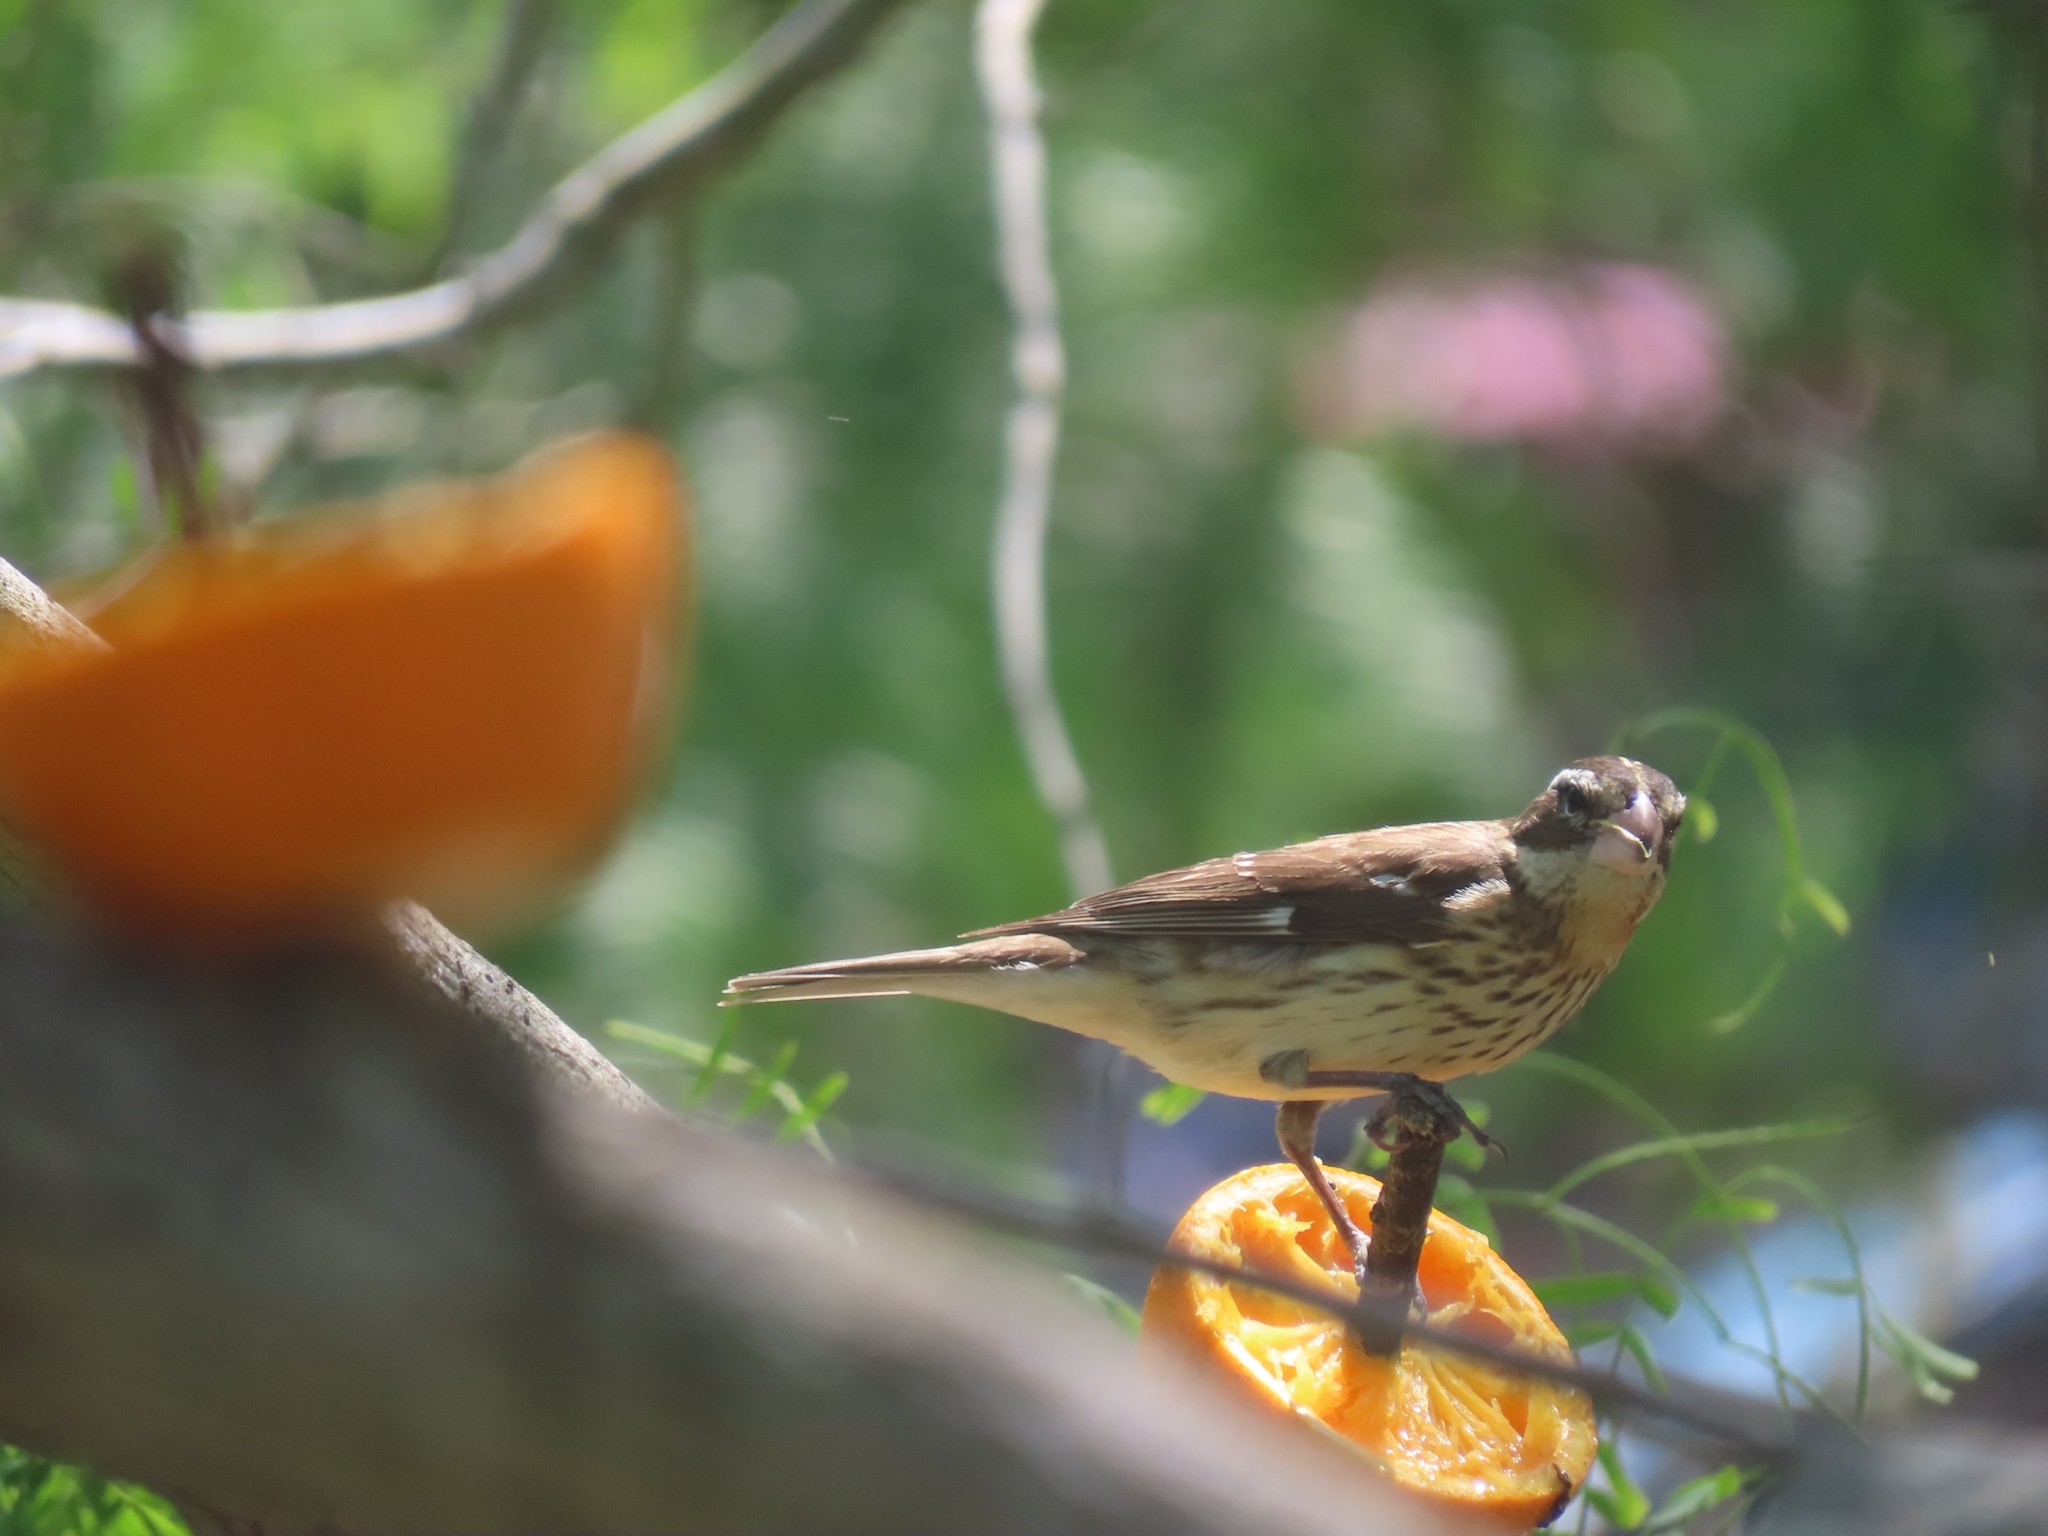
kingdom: Animalia
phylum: Chordata
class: Aves
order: Passeriformes
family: Cardinalidae
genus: Pheucticus
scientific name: Pheucticus ludovicianus
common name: Rose-breasted grosbeak
